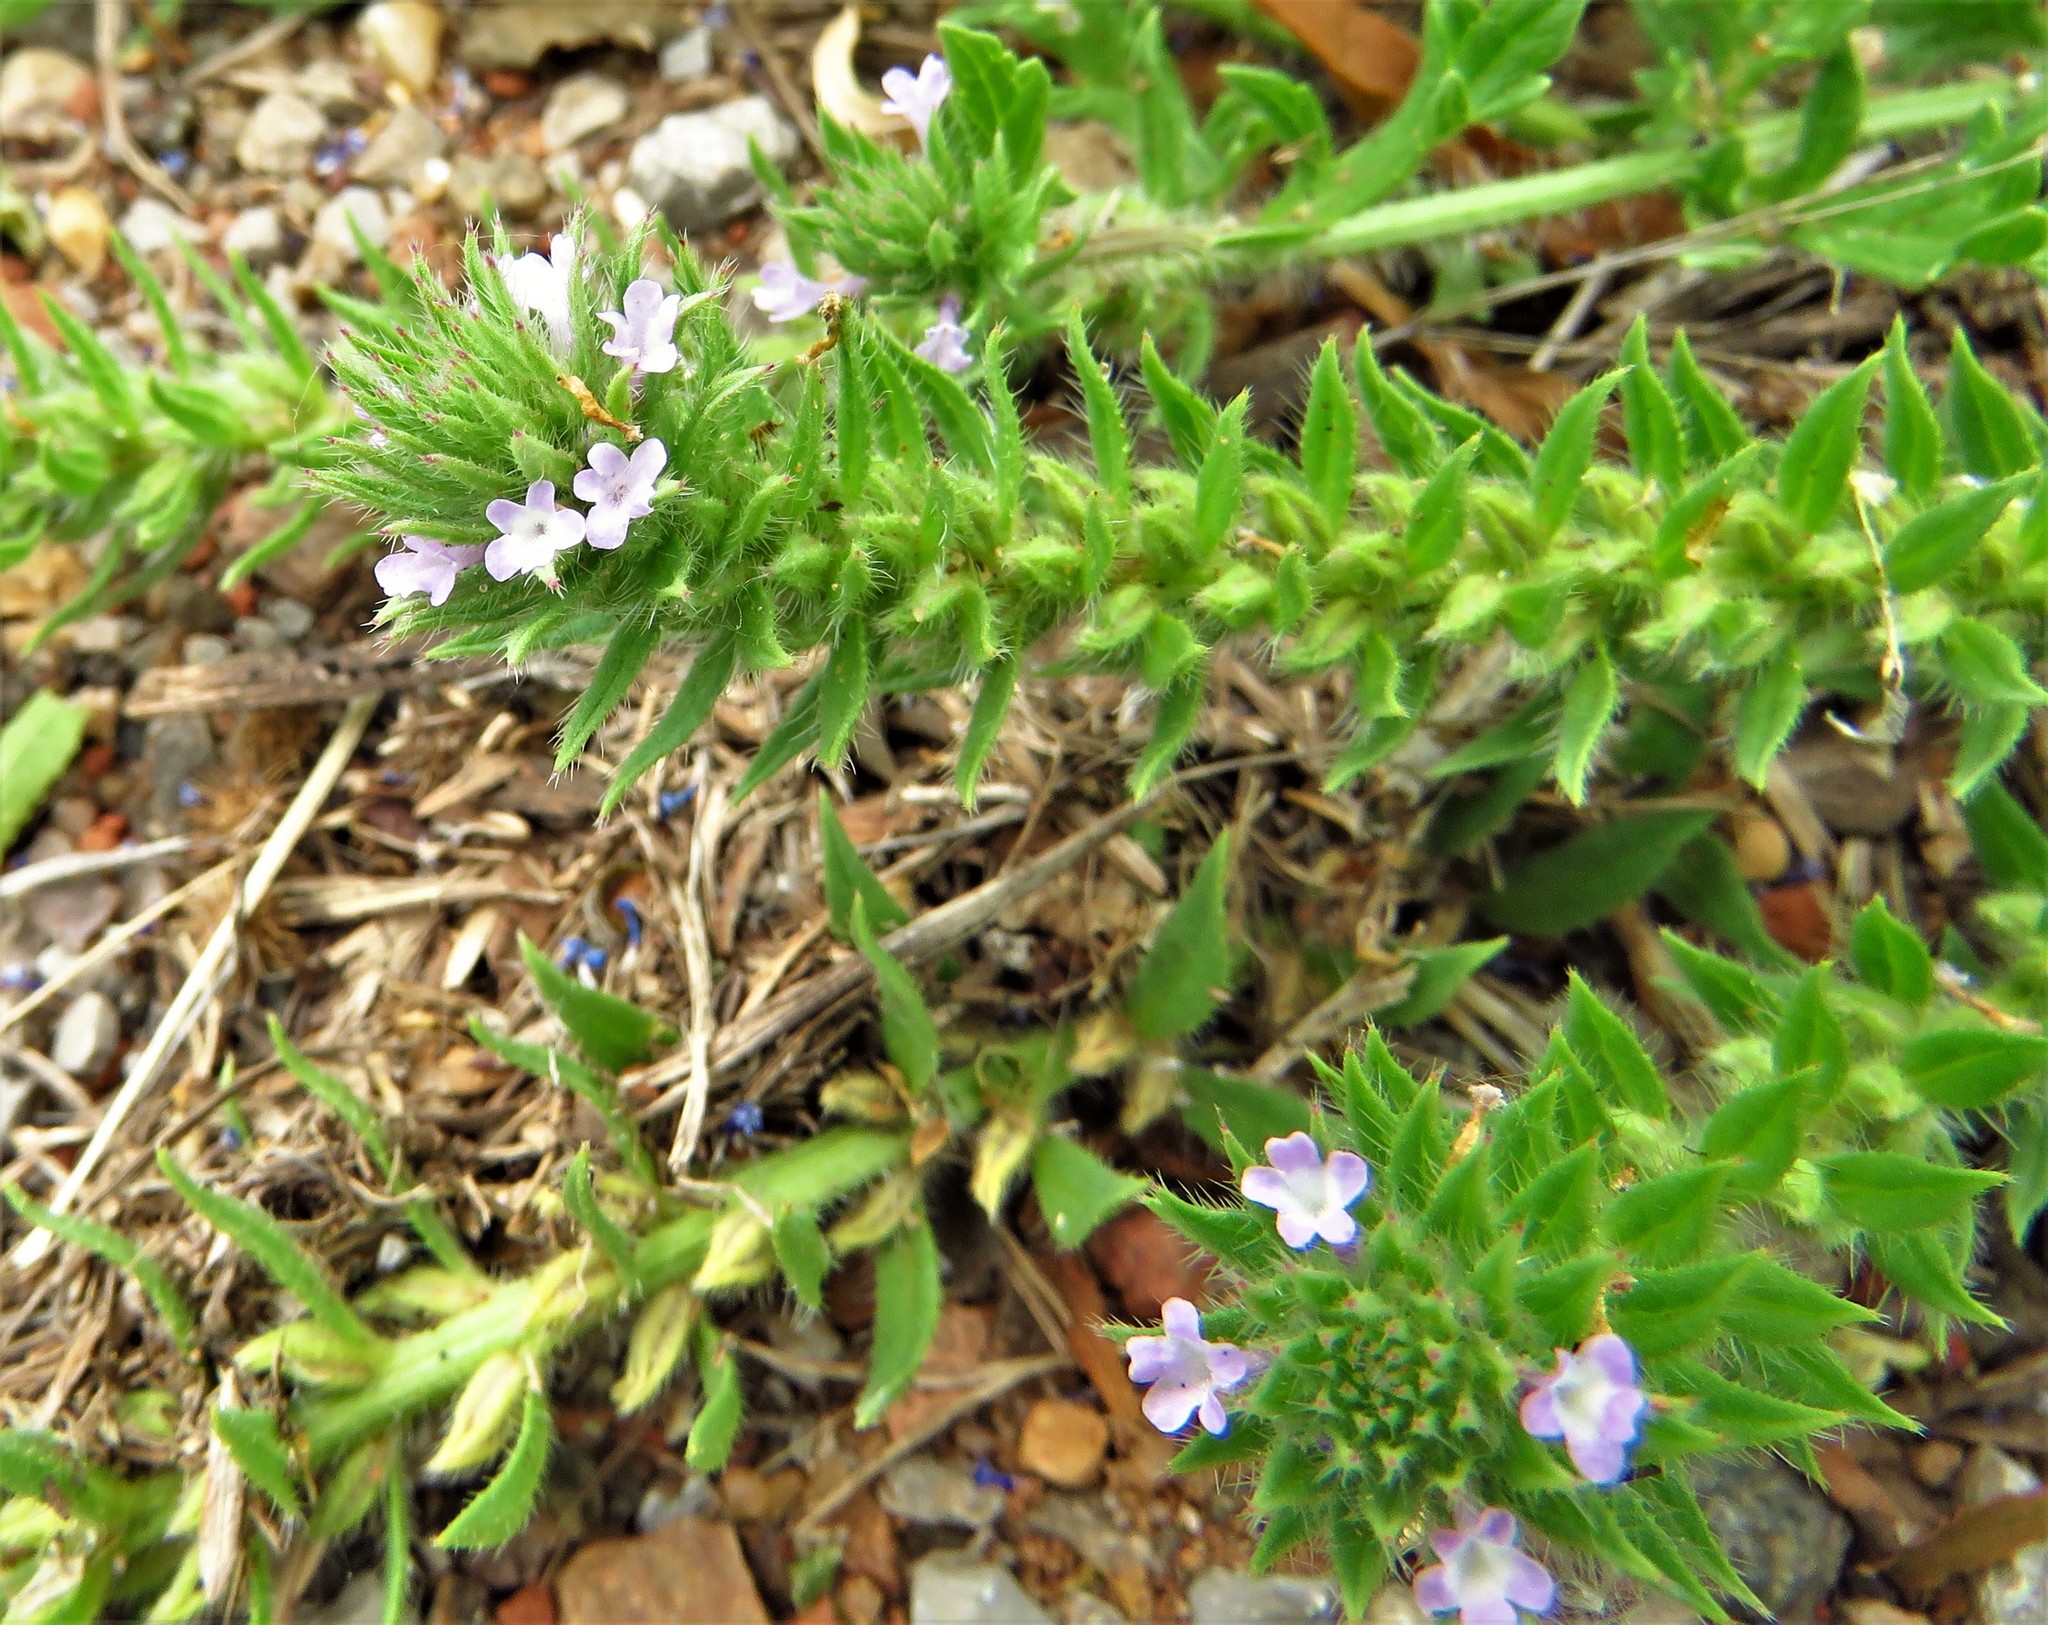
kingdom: Plantae
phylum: Tracheophyta
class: Magnoliopsida
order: Lamiales
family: Verbenaceae
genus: Verbena
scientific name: Verbena bracteata
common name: Bracted vervain
